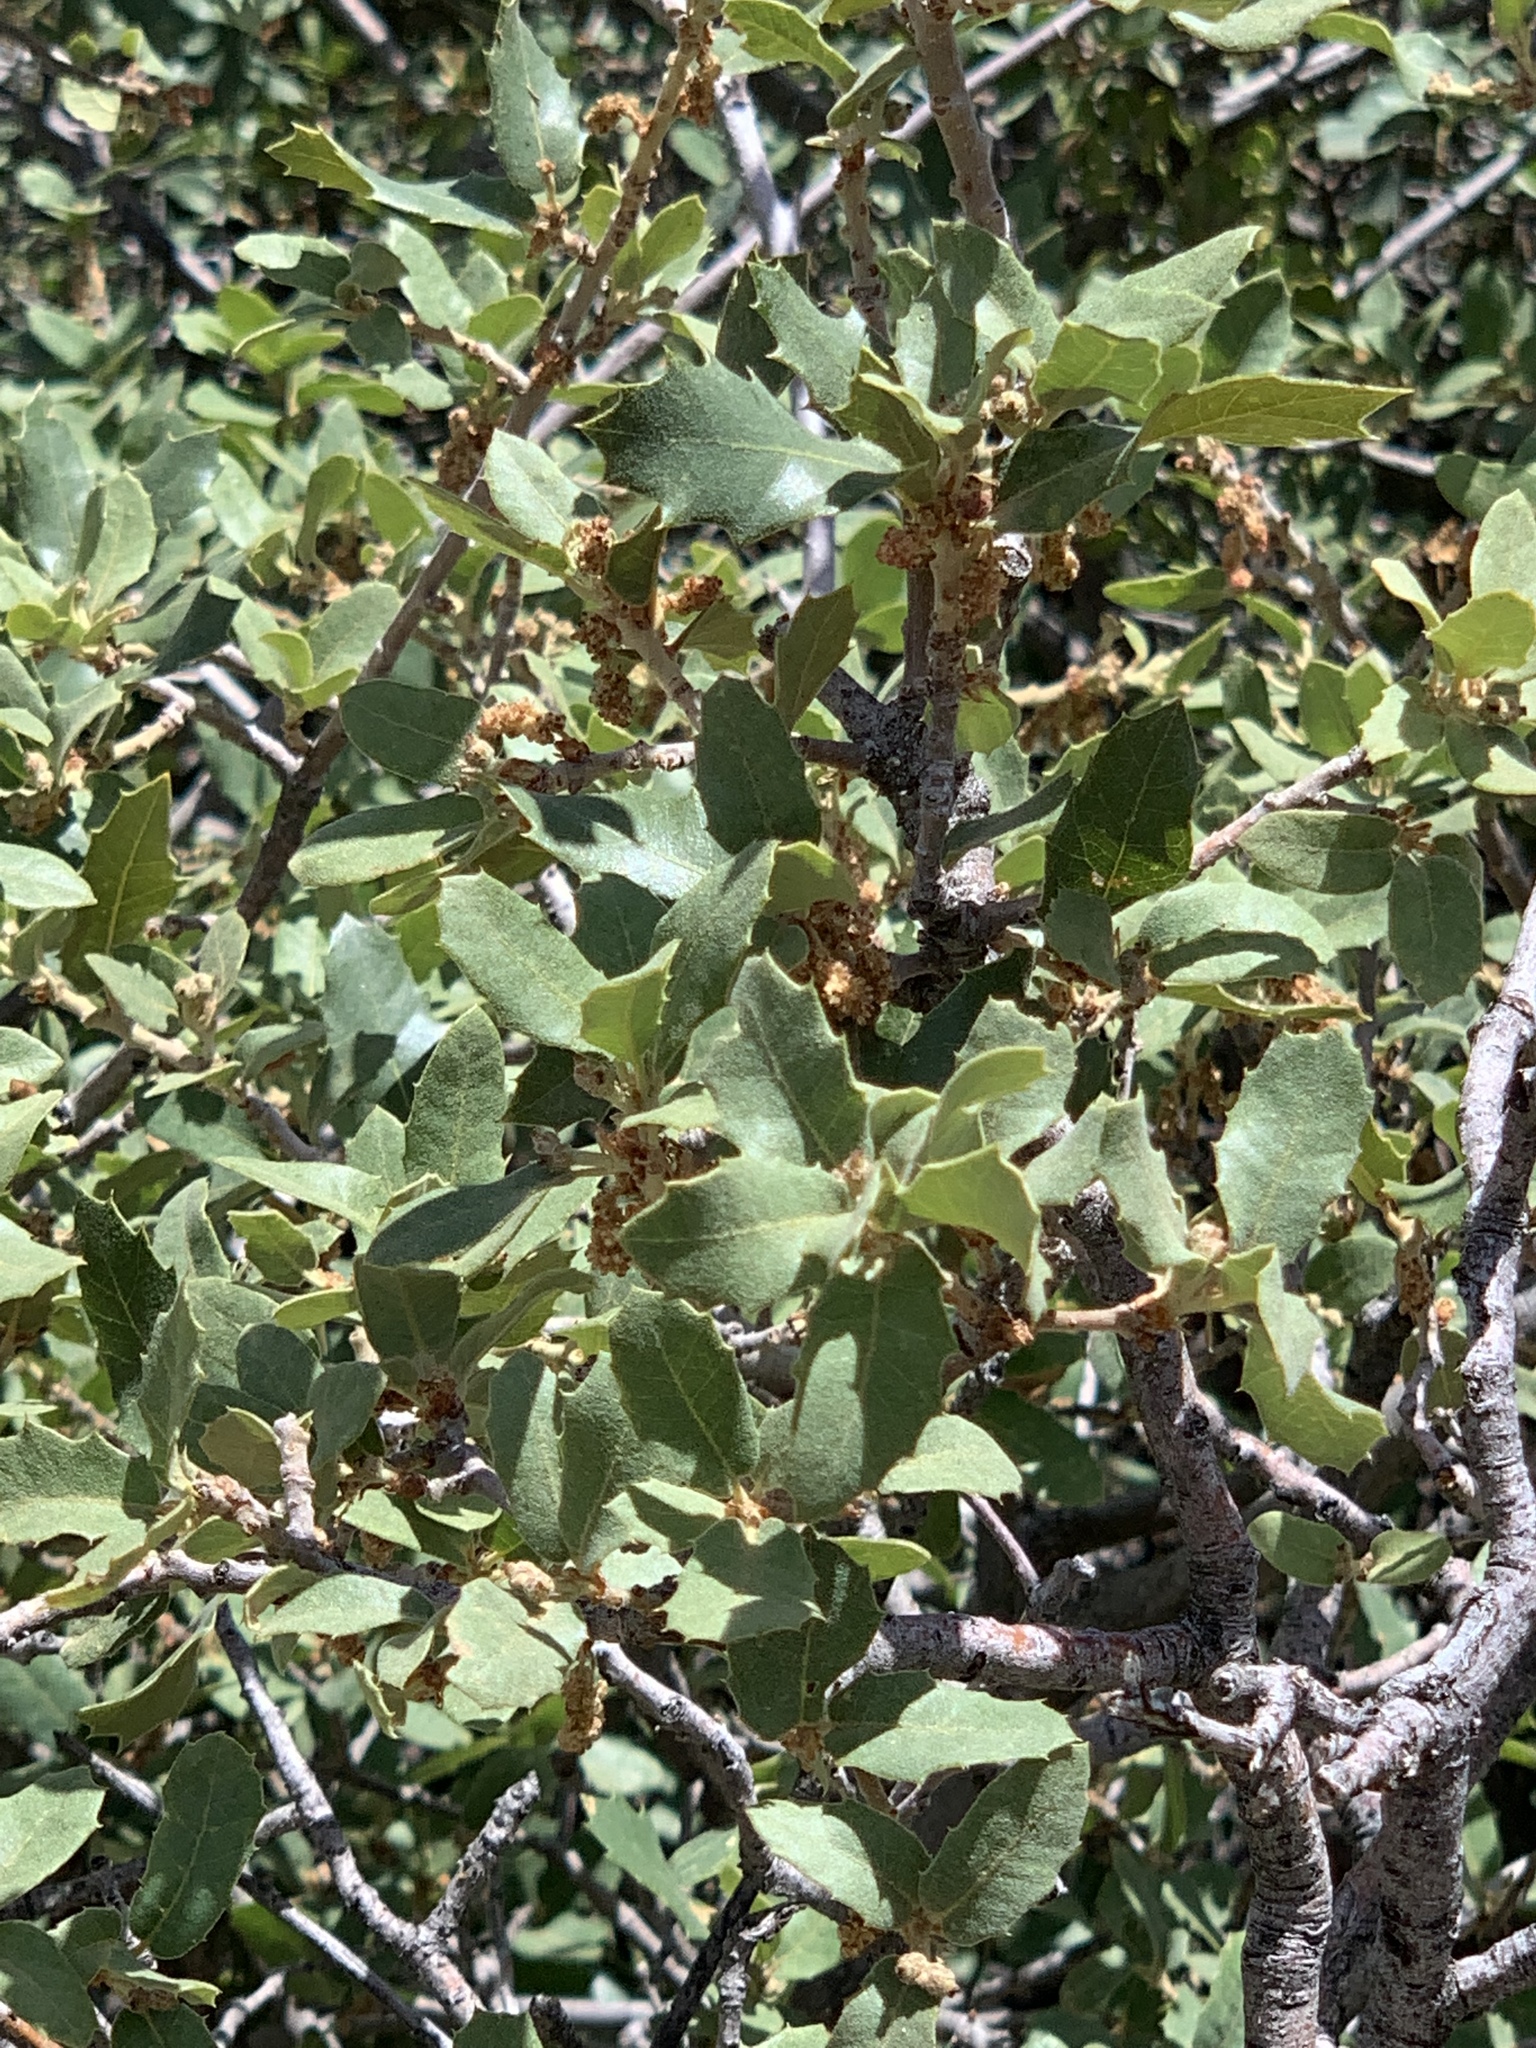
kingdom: Plantae
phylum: Tracheophyta
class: Magnoliopsida
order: Fagales
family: Fagaceae
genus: Quercus
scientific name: Quercus turbinella
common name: Sonoran scrub oak
